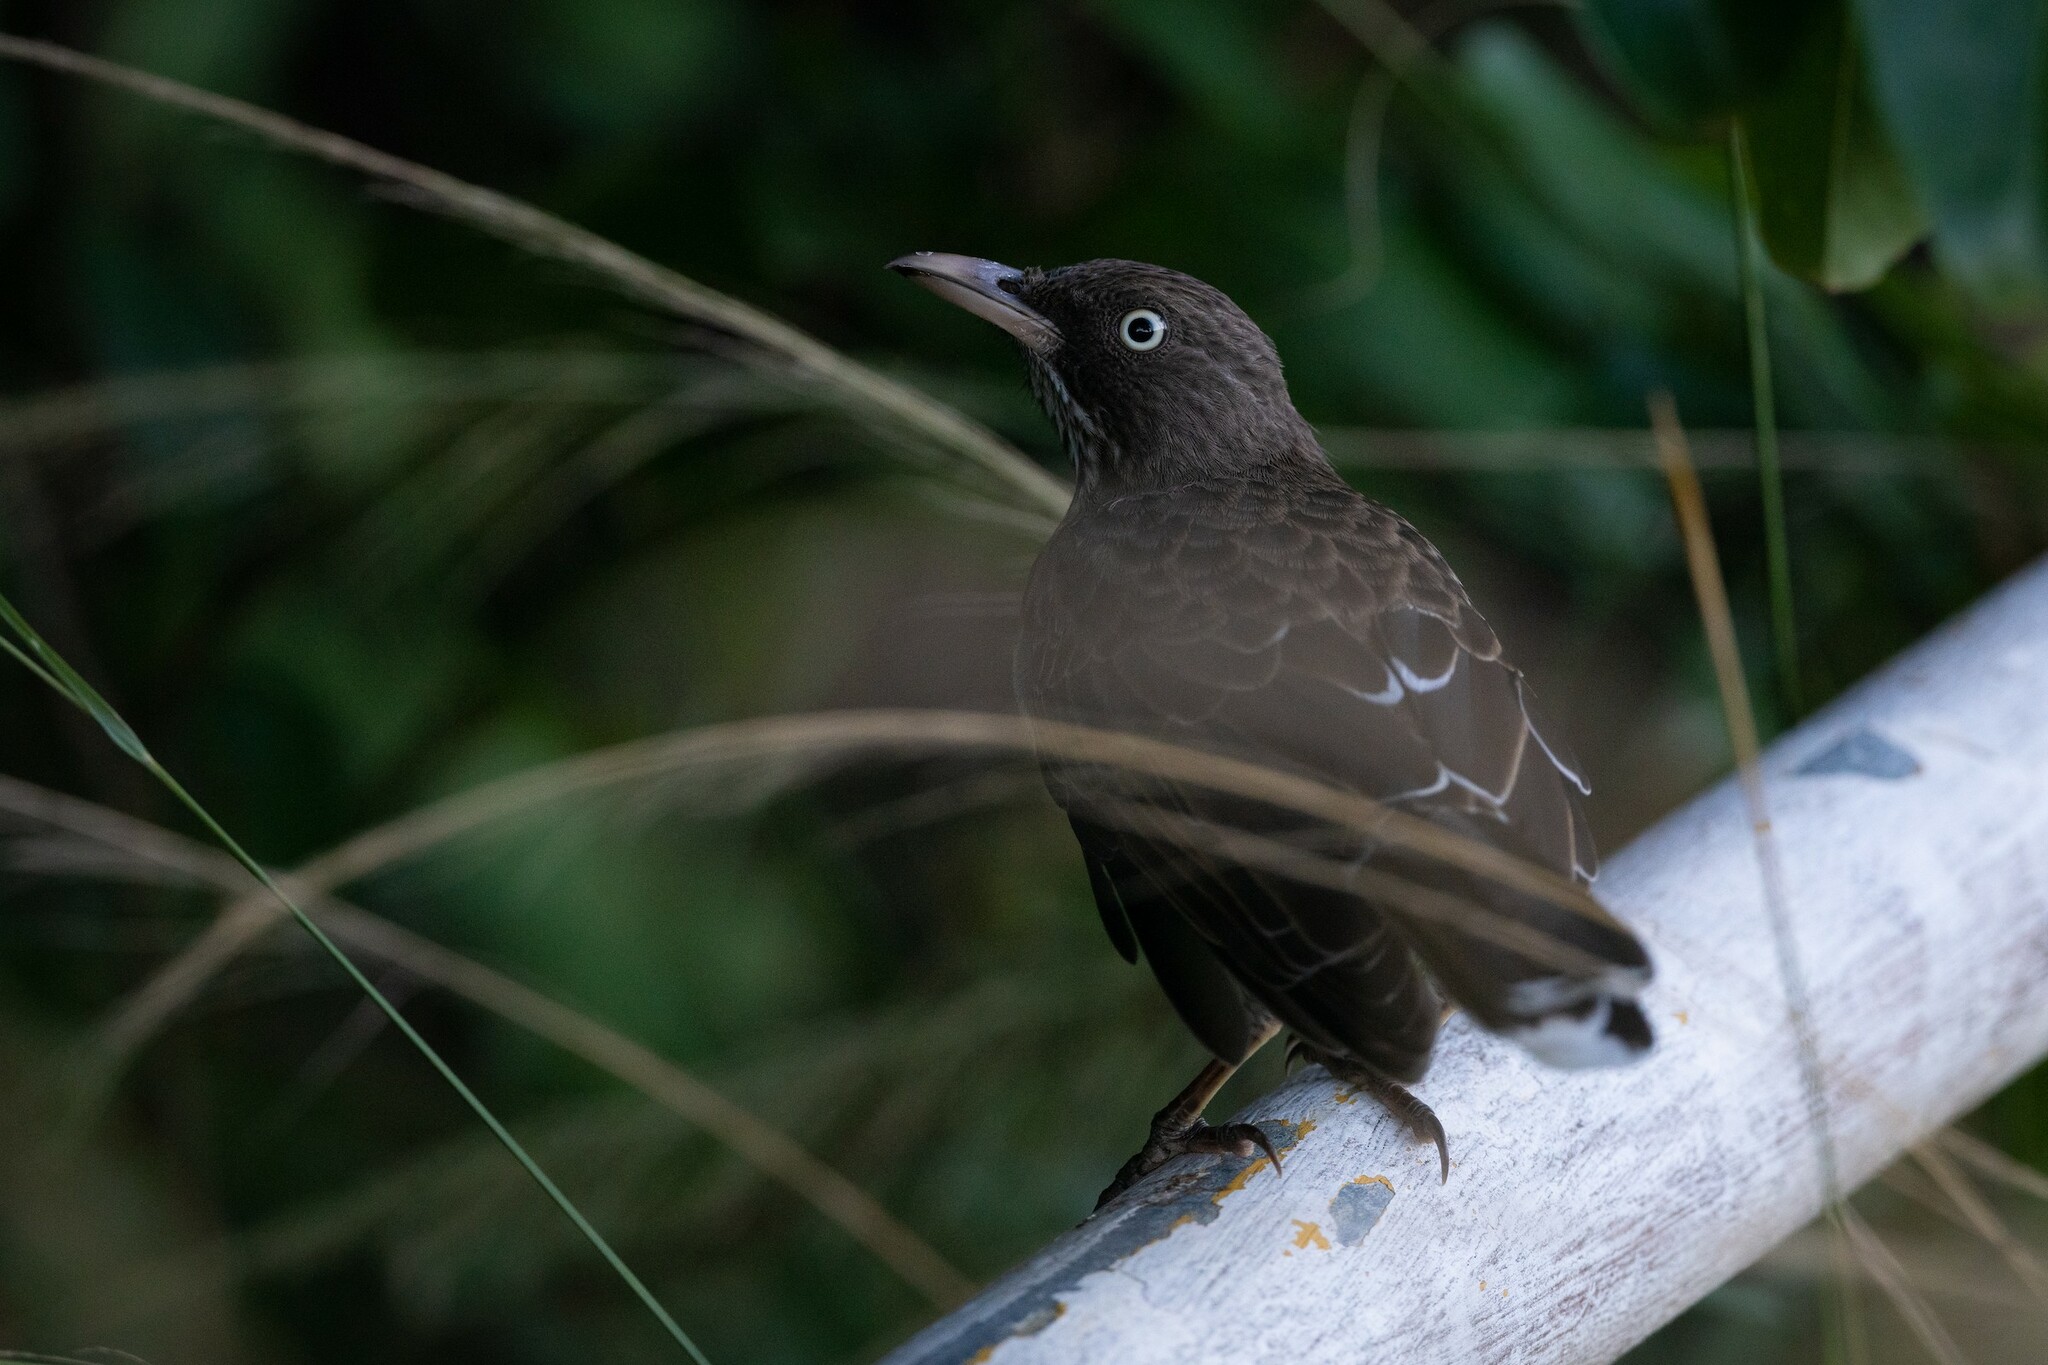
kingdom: Animalia
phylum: Chordata
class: Aves
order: Passeriformes
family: Mimidae
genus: Margarops
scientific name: Margarops fuscatus
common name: Pearly-eyed thrasher
